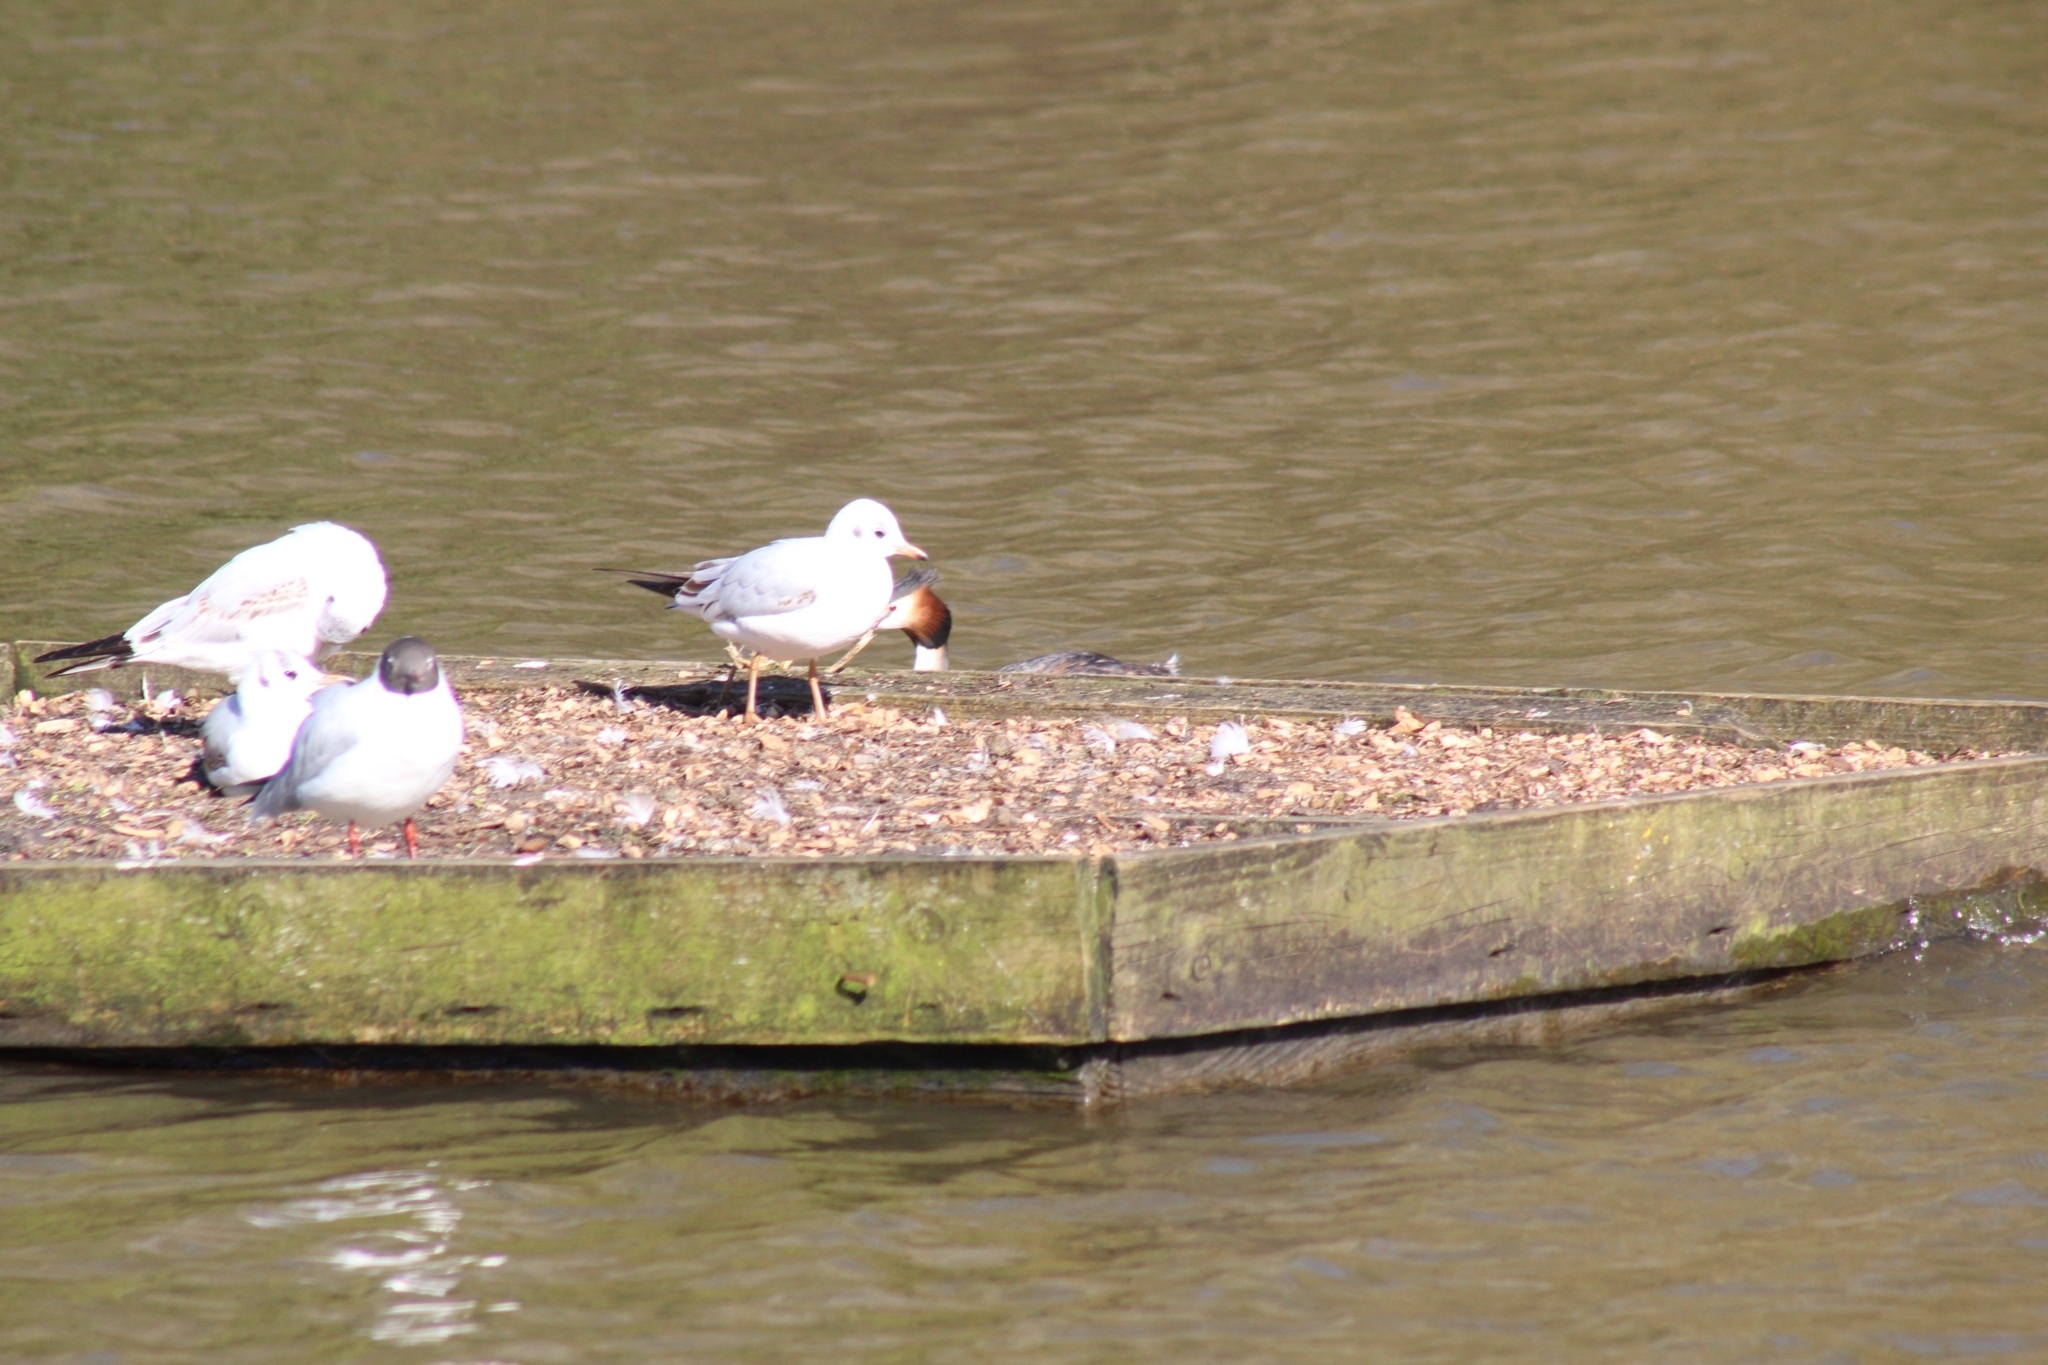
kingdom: Animalia
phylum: Chordata
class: Aves
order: Charadriiformes
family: Laridae
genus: Chroicocephalus
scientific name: Chroicocephalus ridibundus
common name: Black-headed gull
